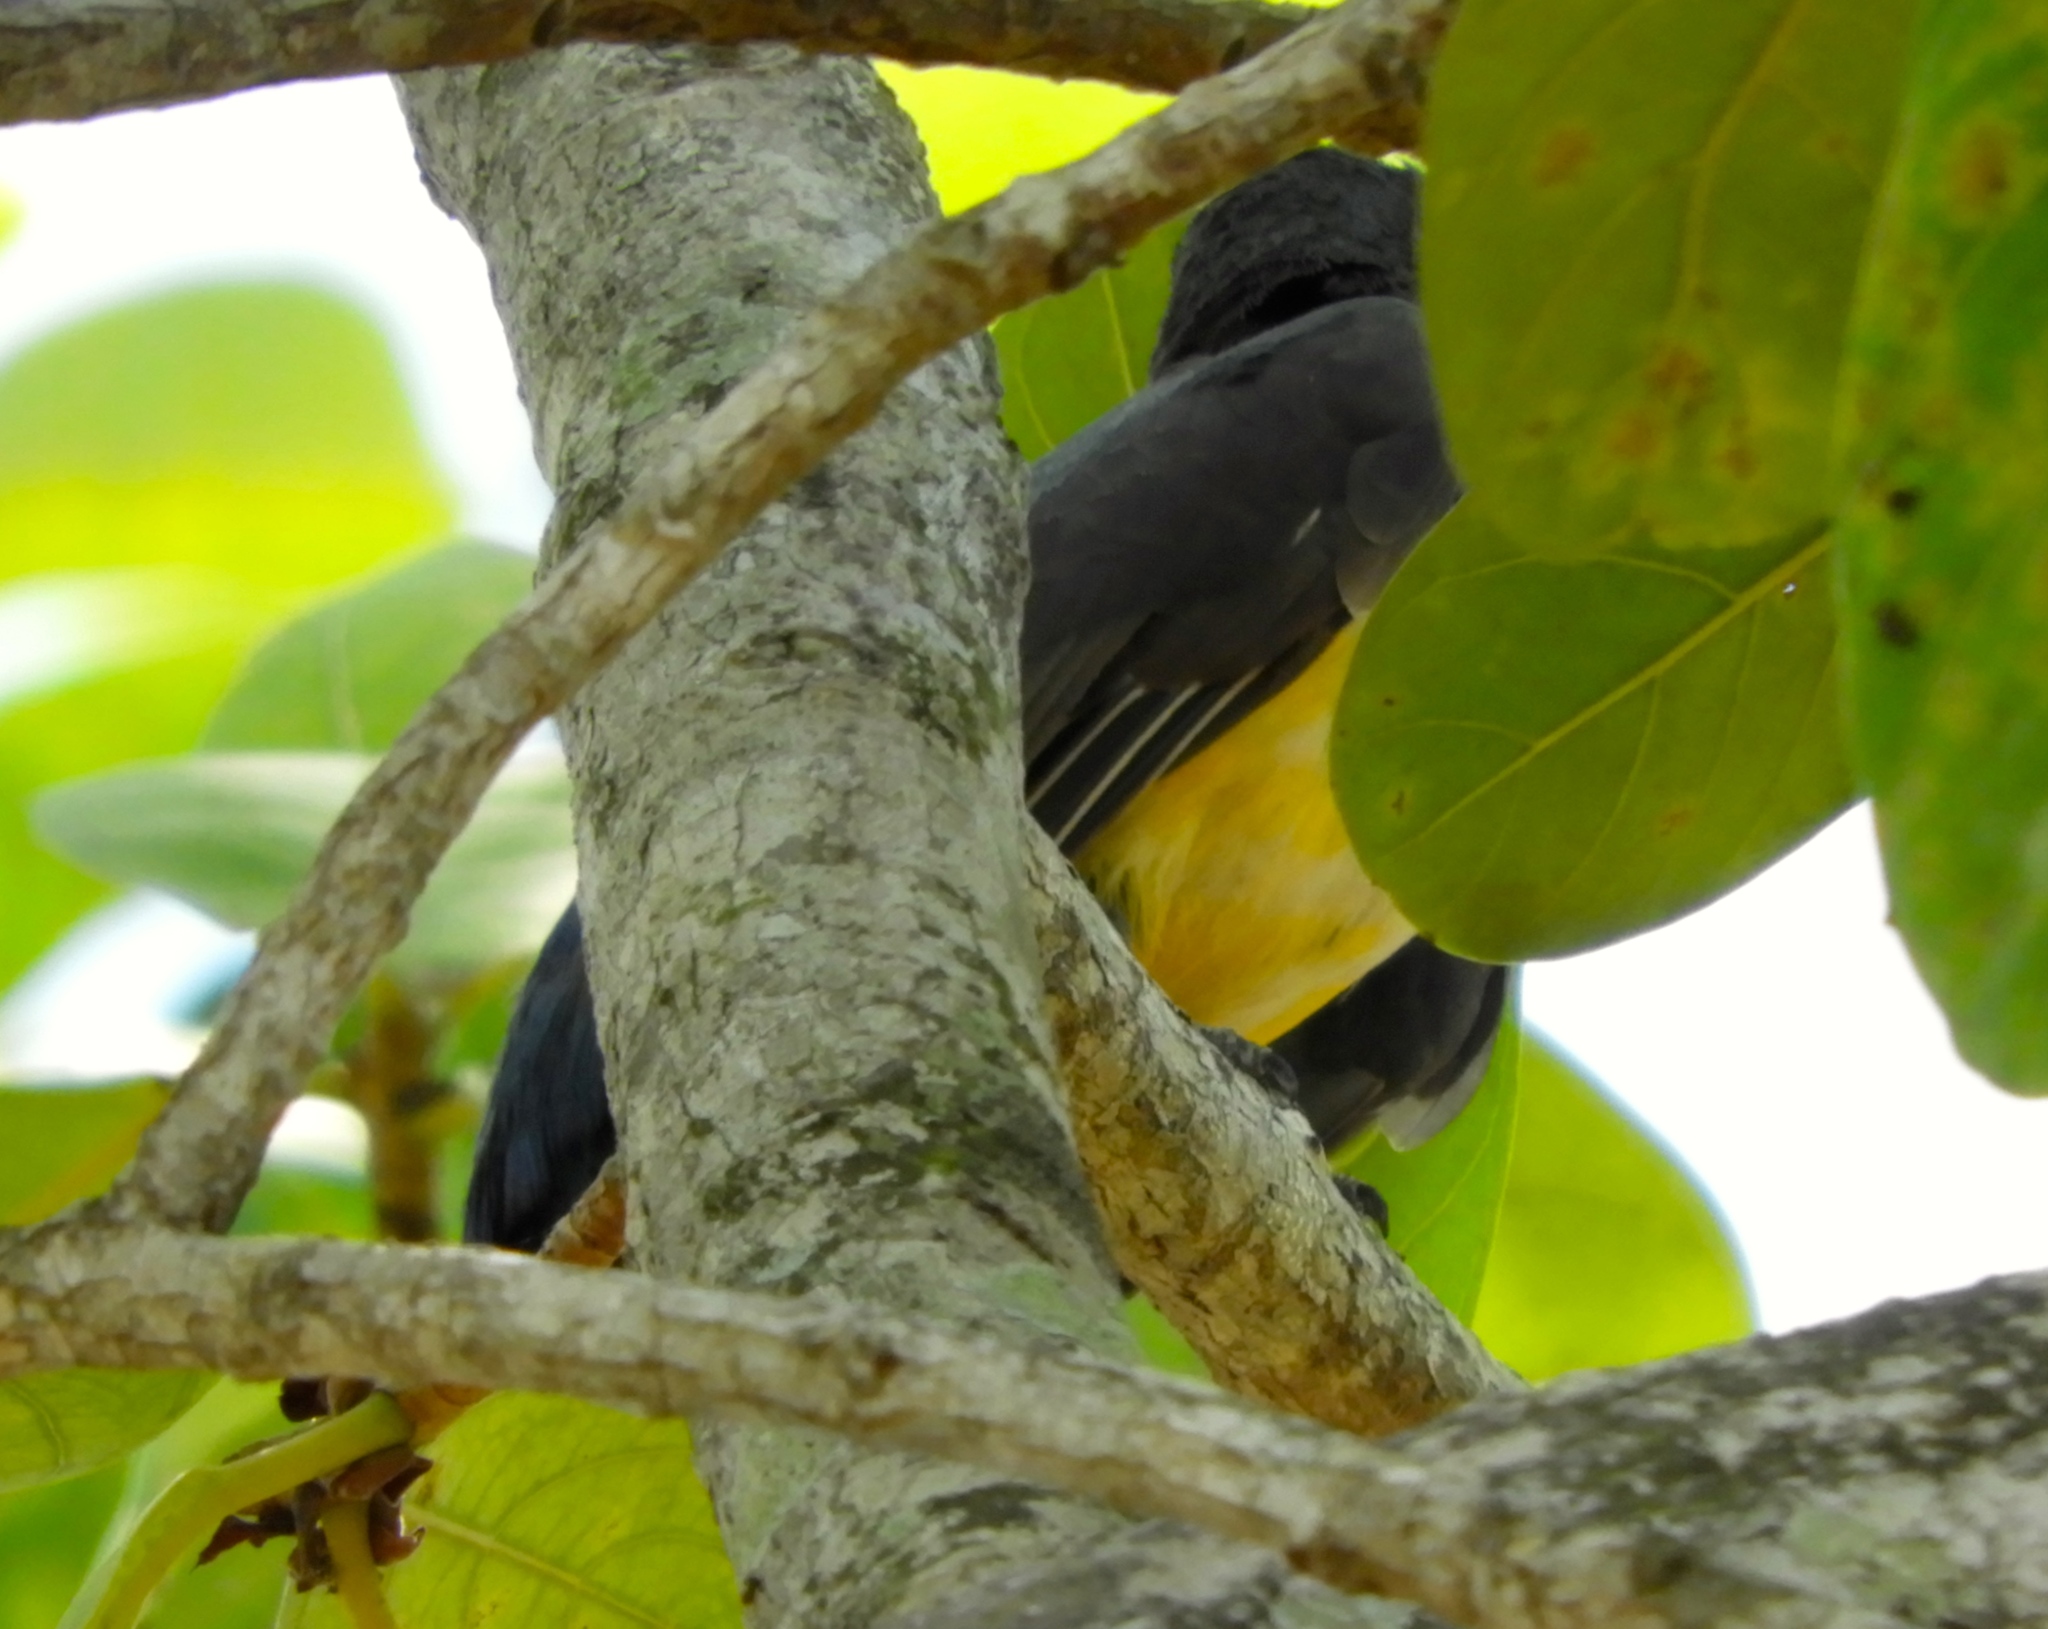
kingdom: Animalia
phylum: Chordata
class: Aves
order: Trogoniformes
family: Trogonidae
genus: Trogon
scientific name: Trogon citreolus
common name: Citreoline trogon
